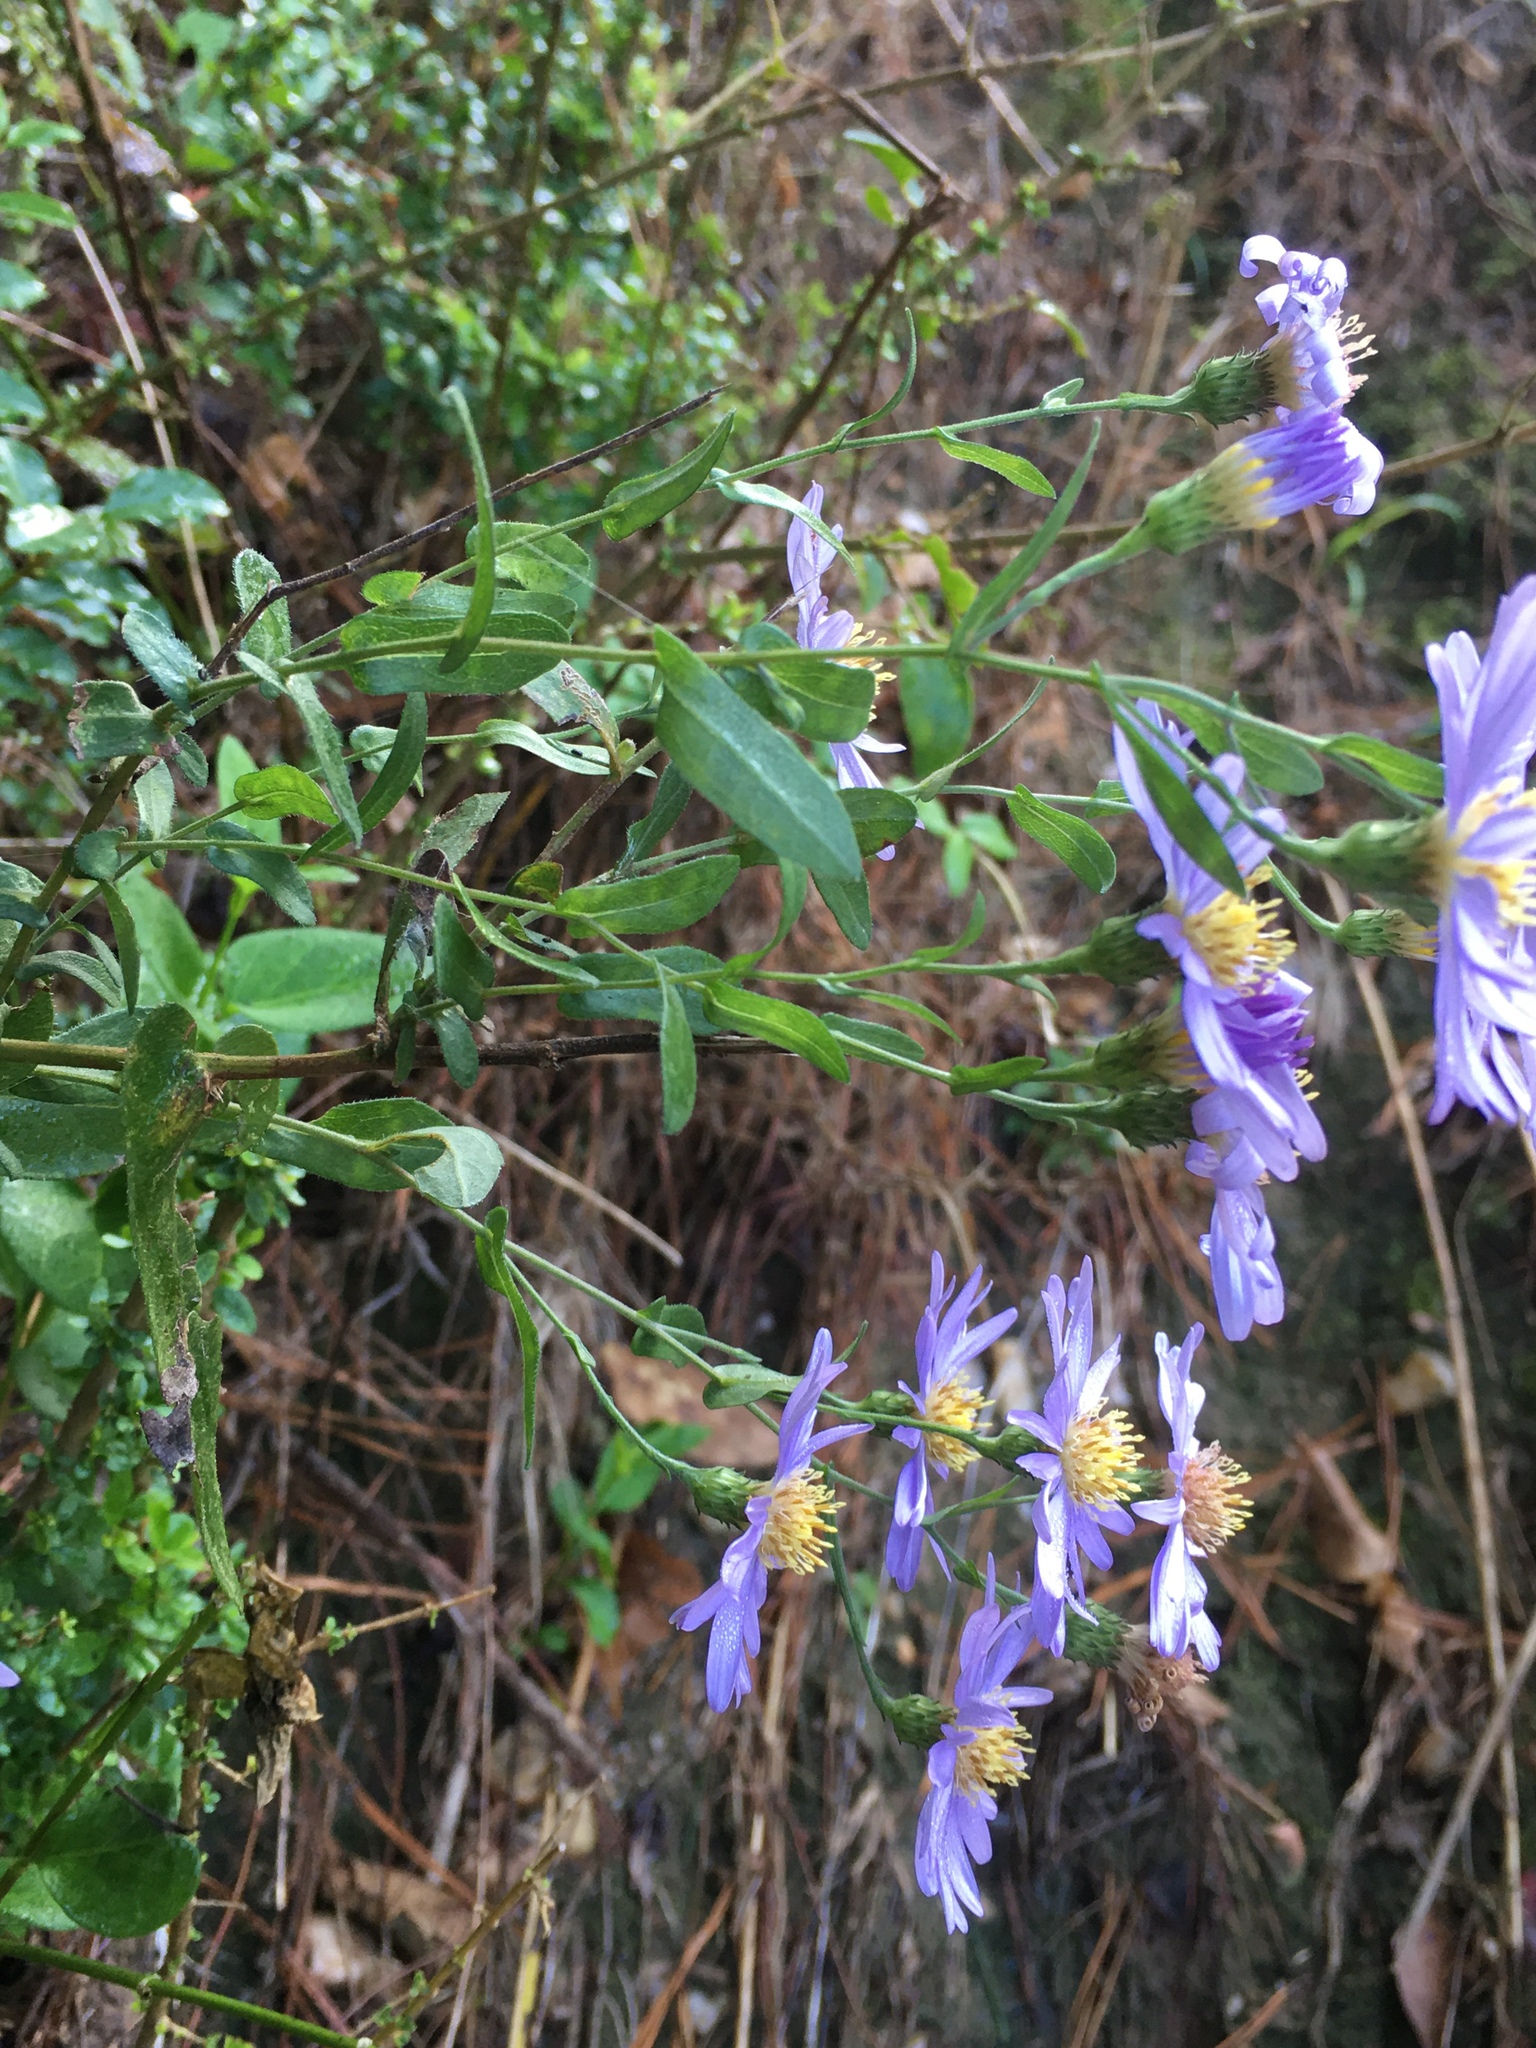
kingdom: Plantae
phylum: Tracheophyta
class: Magnoliopsida
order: Asterales
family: Asteraceae
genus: Symphyotrichum
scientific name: Symphyotrichum patens
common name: Late purple aster
